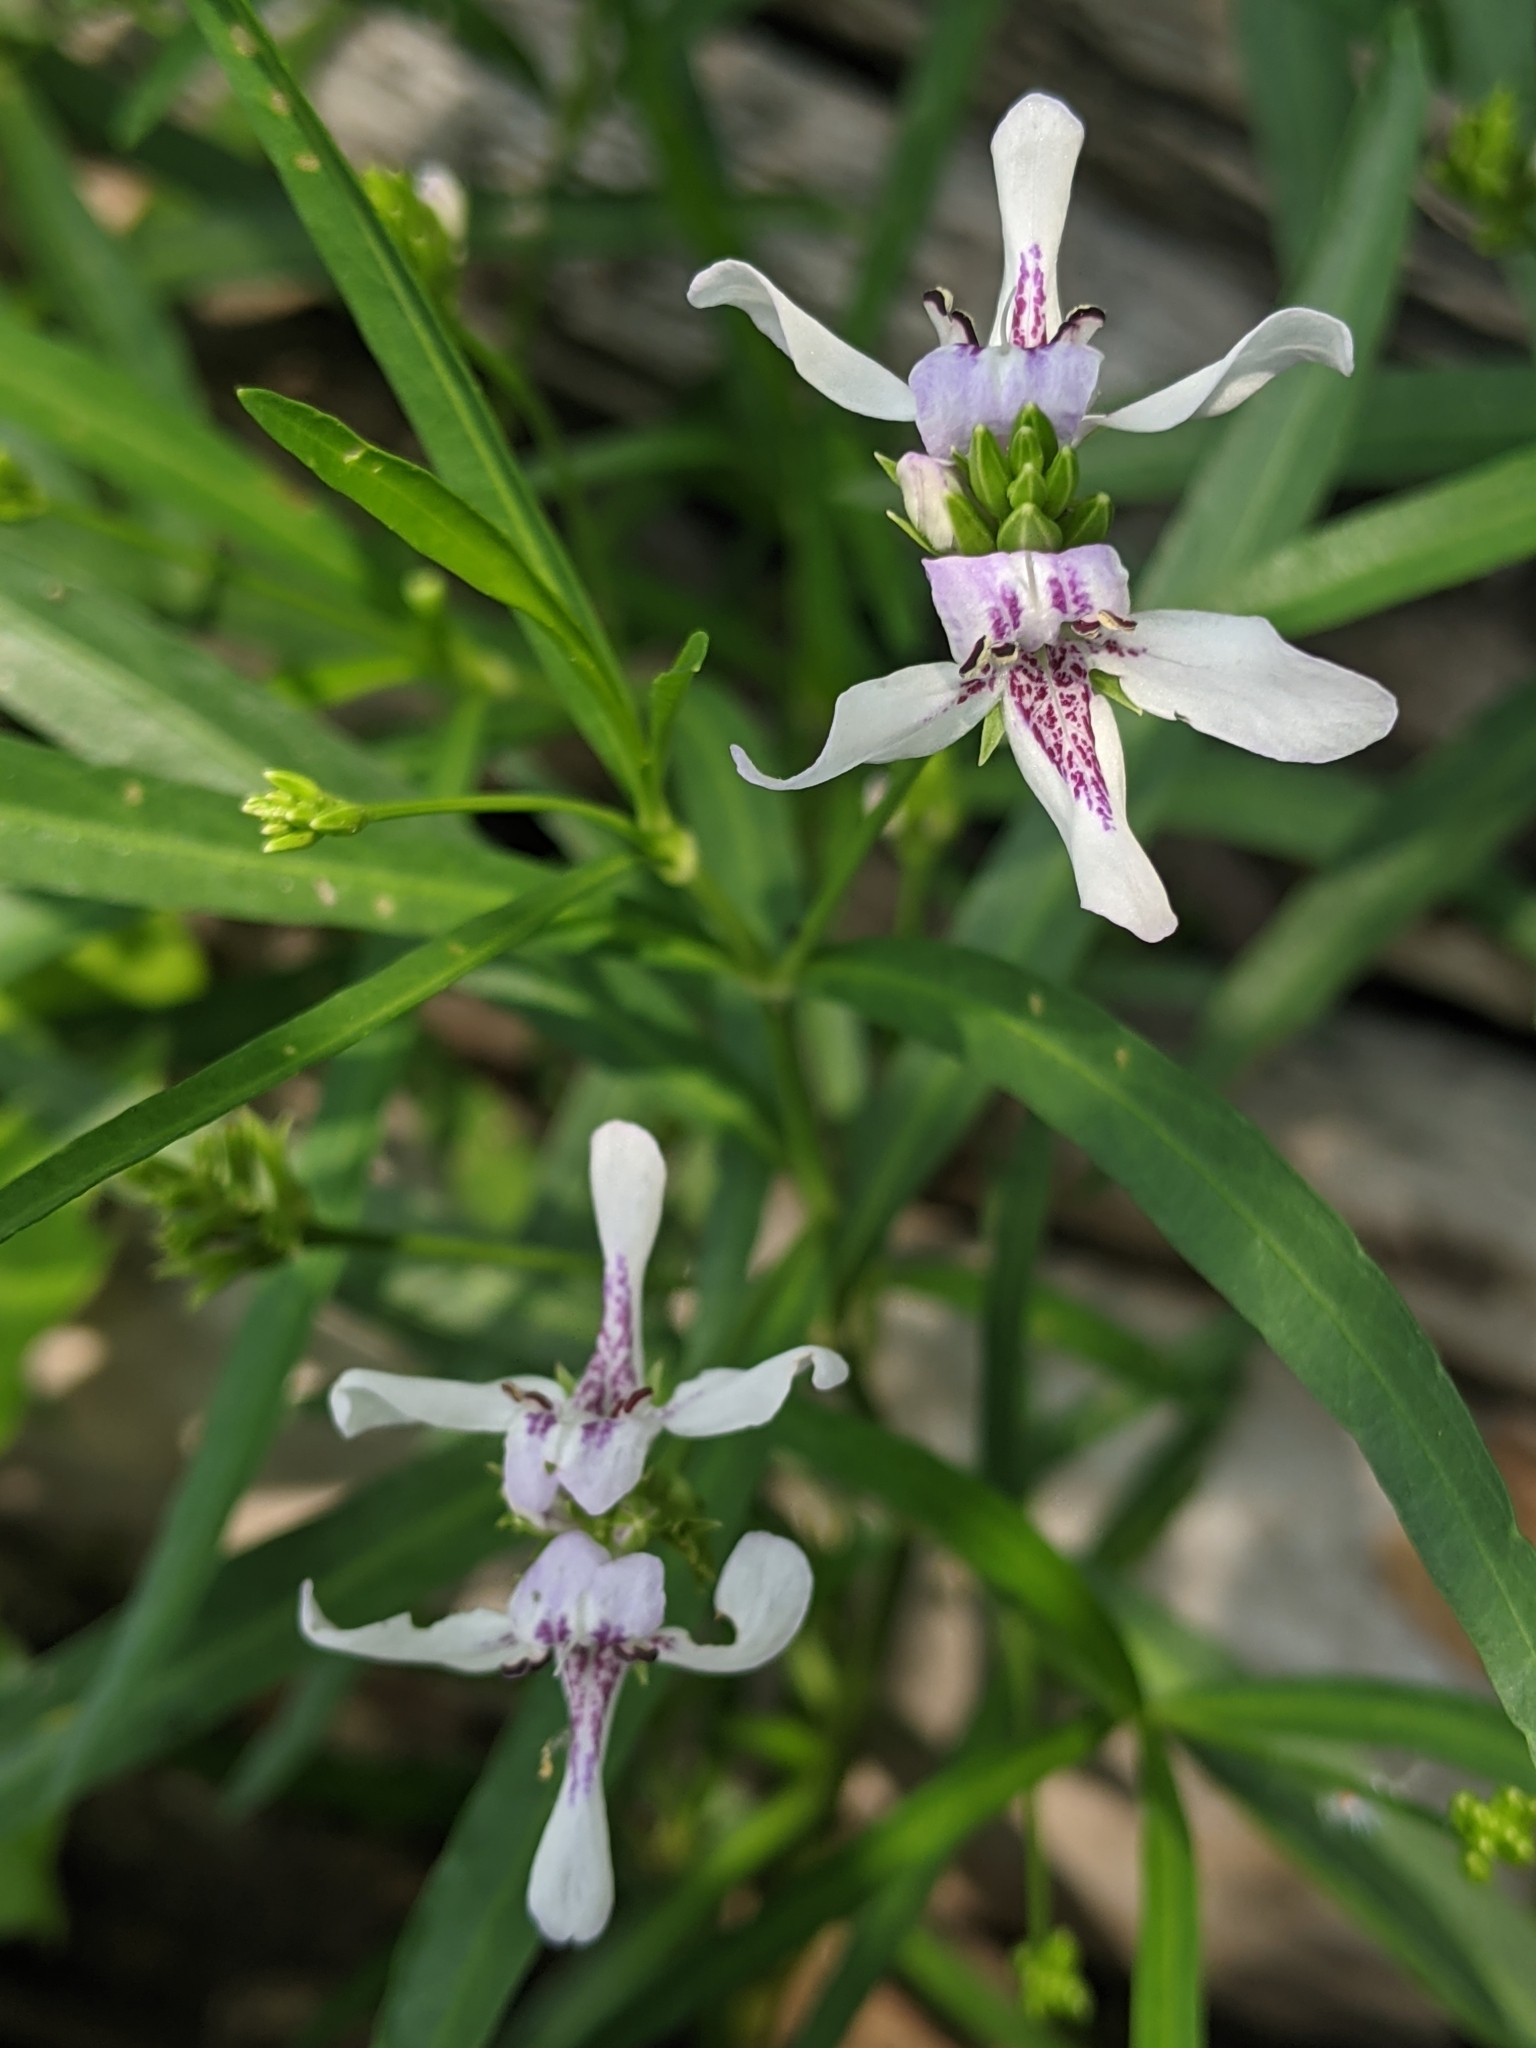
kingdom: Plantae
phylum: Tracheophyta
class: Magnoliopsida
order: Lamiales
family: Acanthaceae
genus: Dianthera
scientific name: Dianthera americana
